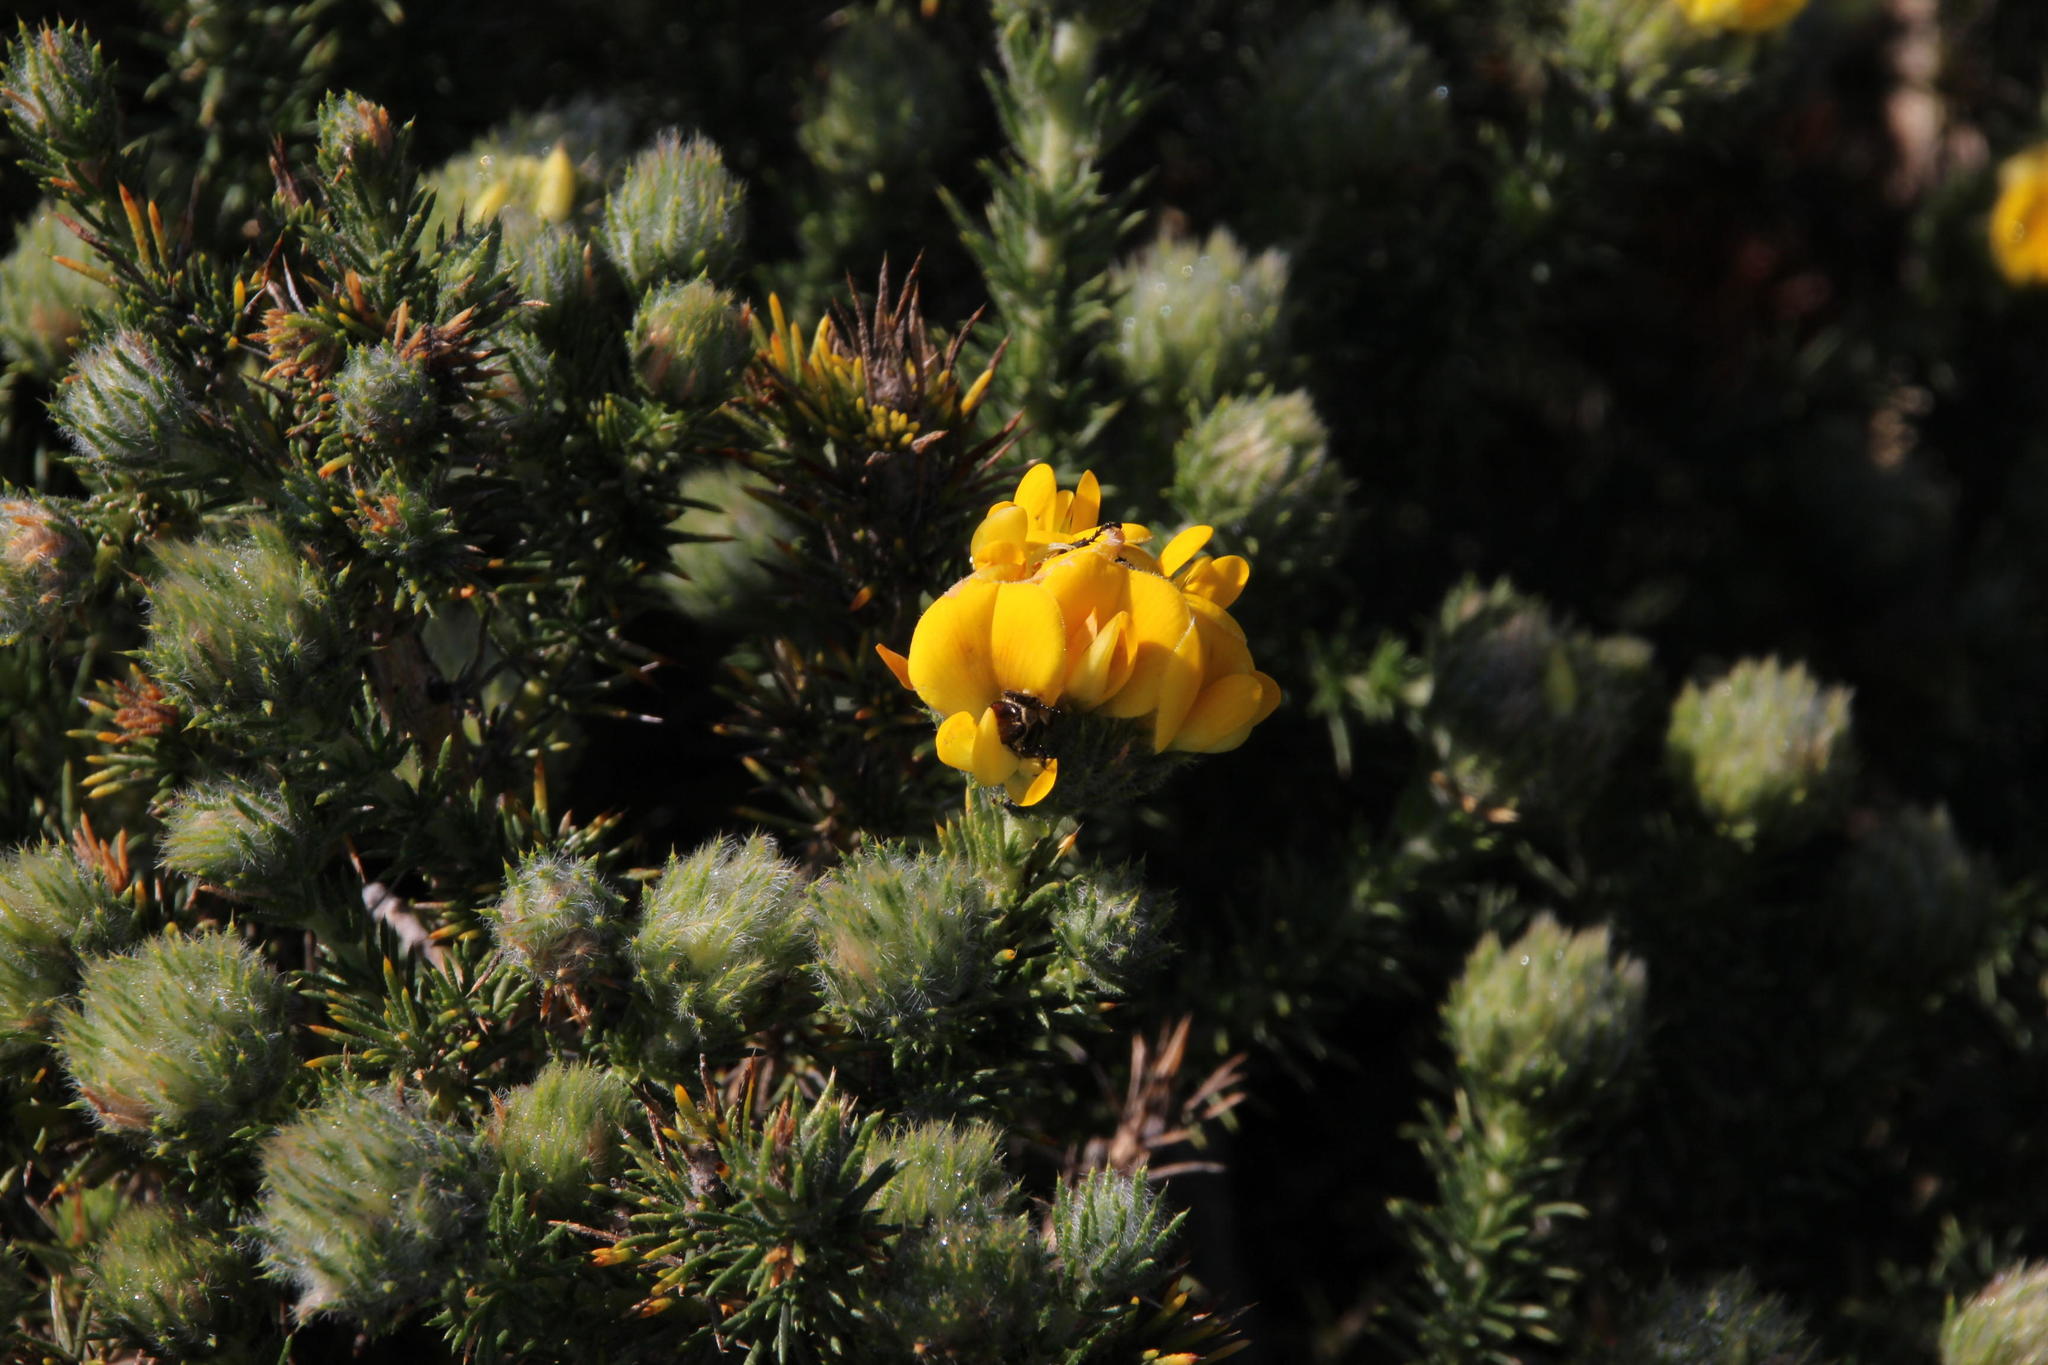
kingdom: Plantae
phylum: Tracheophyta
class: Magnoliopsida
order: Fabales
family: Fabaceae
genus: Aspalathus
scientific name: Aspalathus chenopoda
